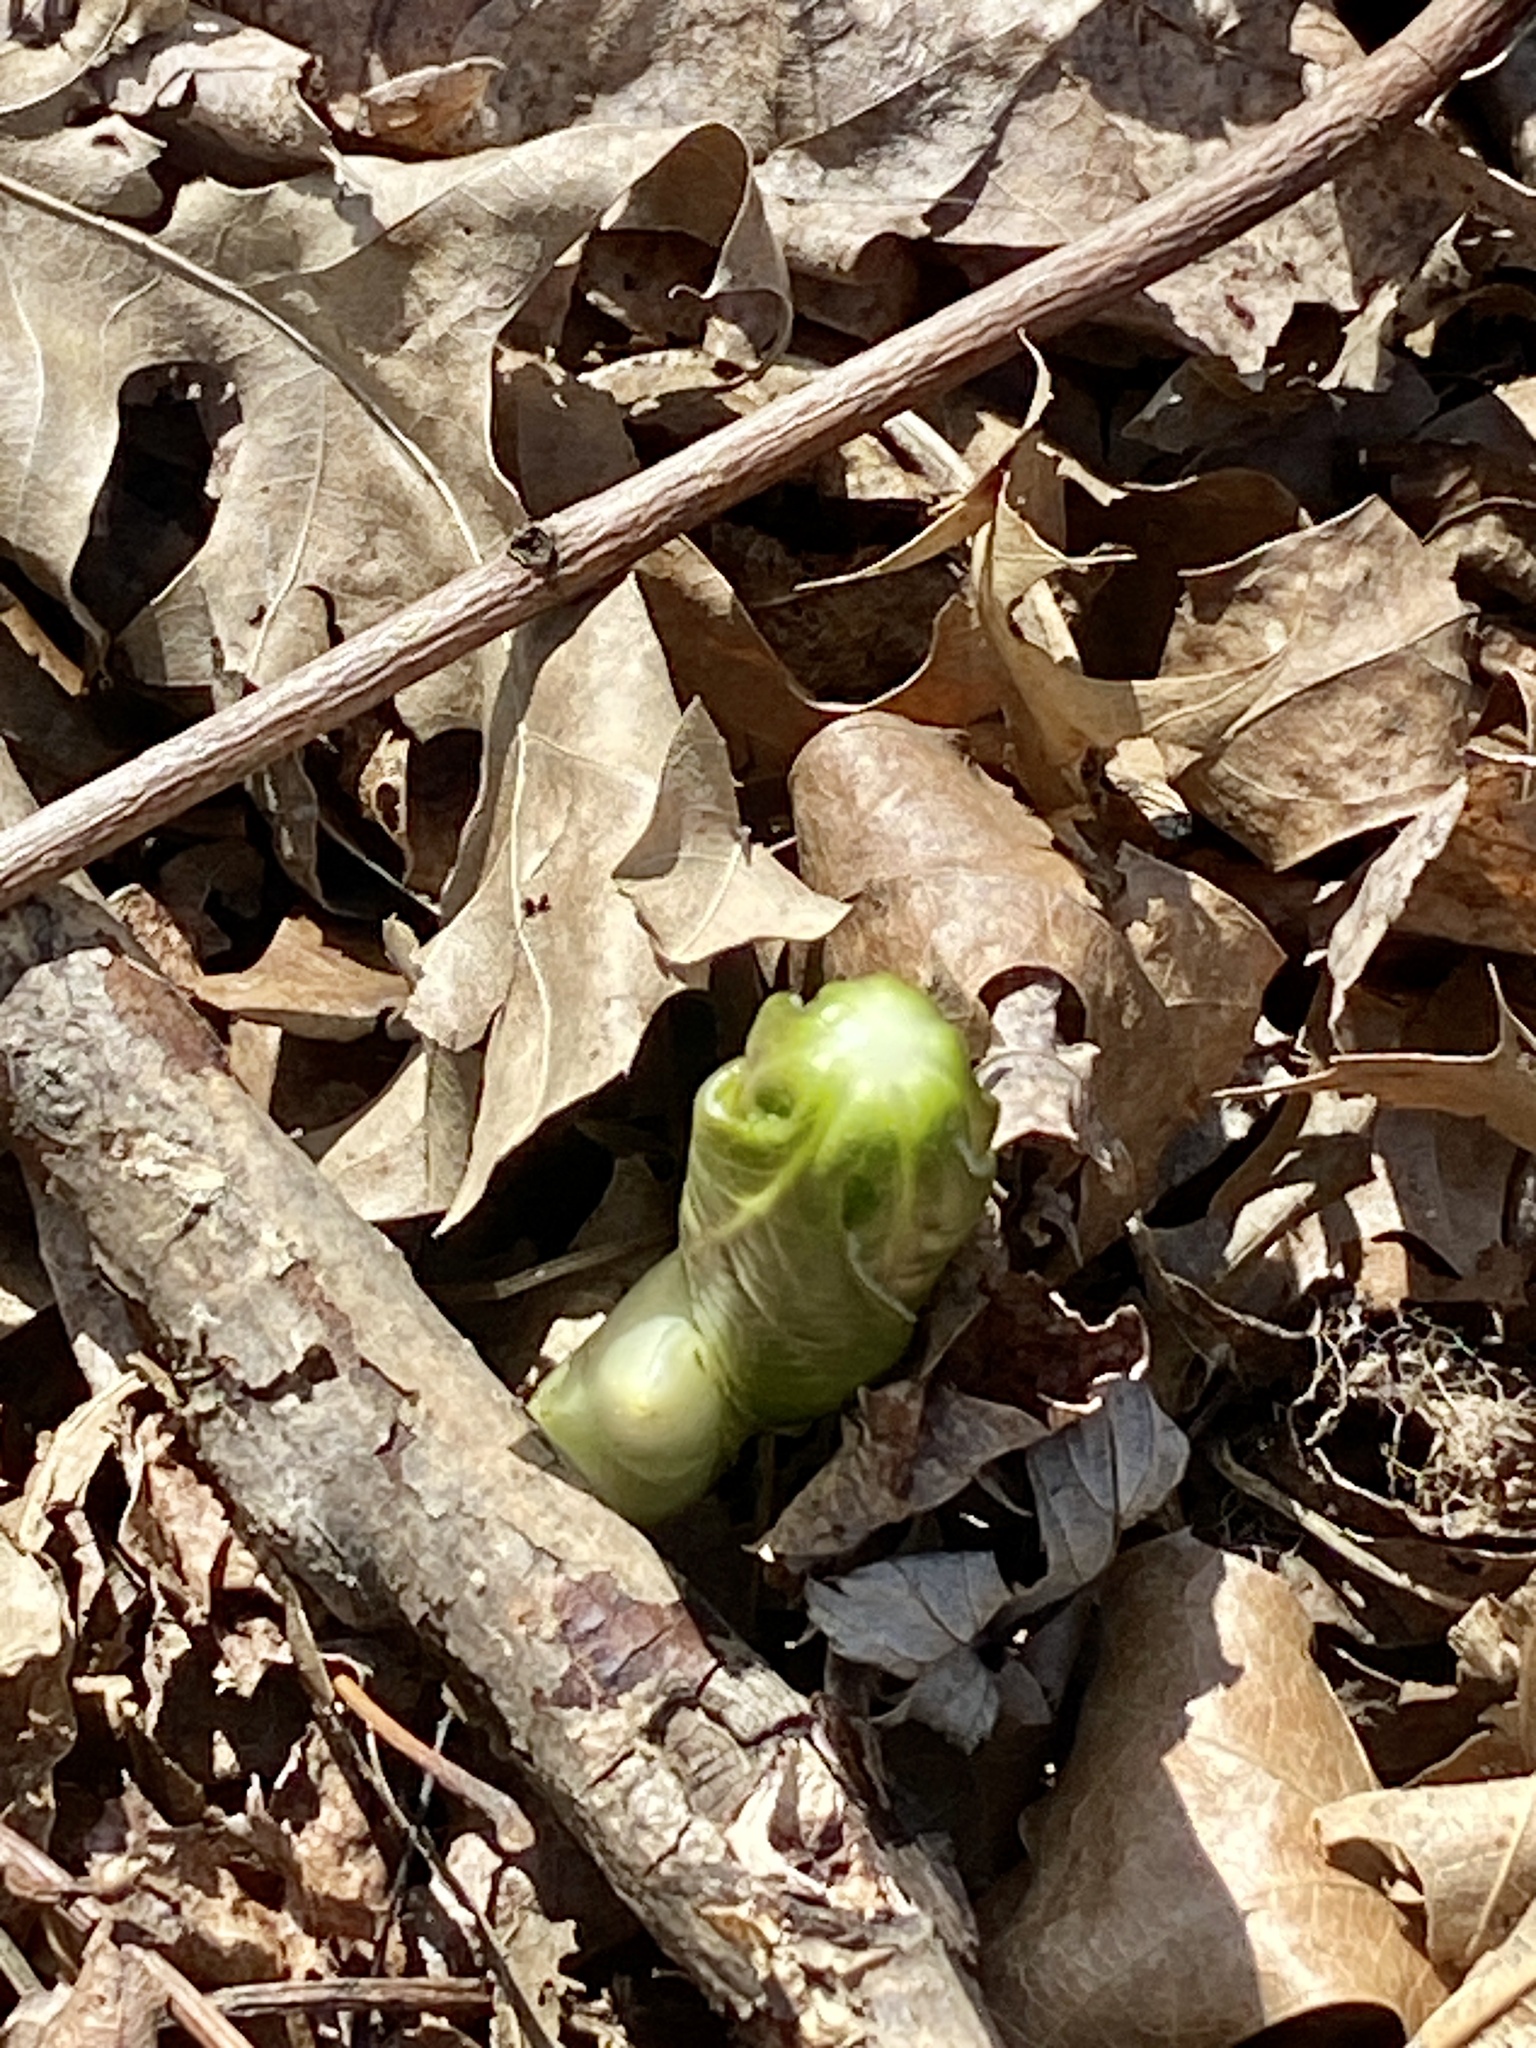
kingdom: Plantae
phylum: Tracheophyta
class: Magnoliopsida
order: Ranunculales
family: Berberidaceae
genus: Podophyllum
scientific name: Podophyllum peltatum
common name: Wild mandrake
